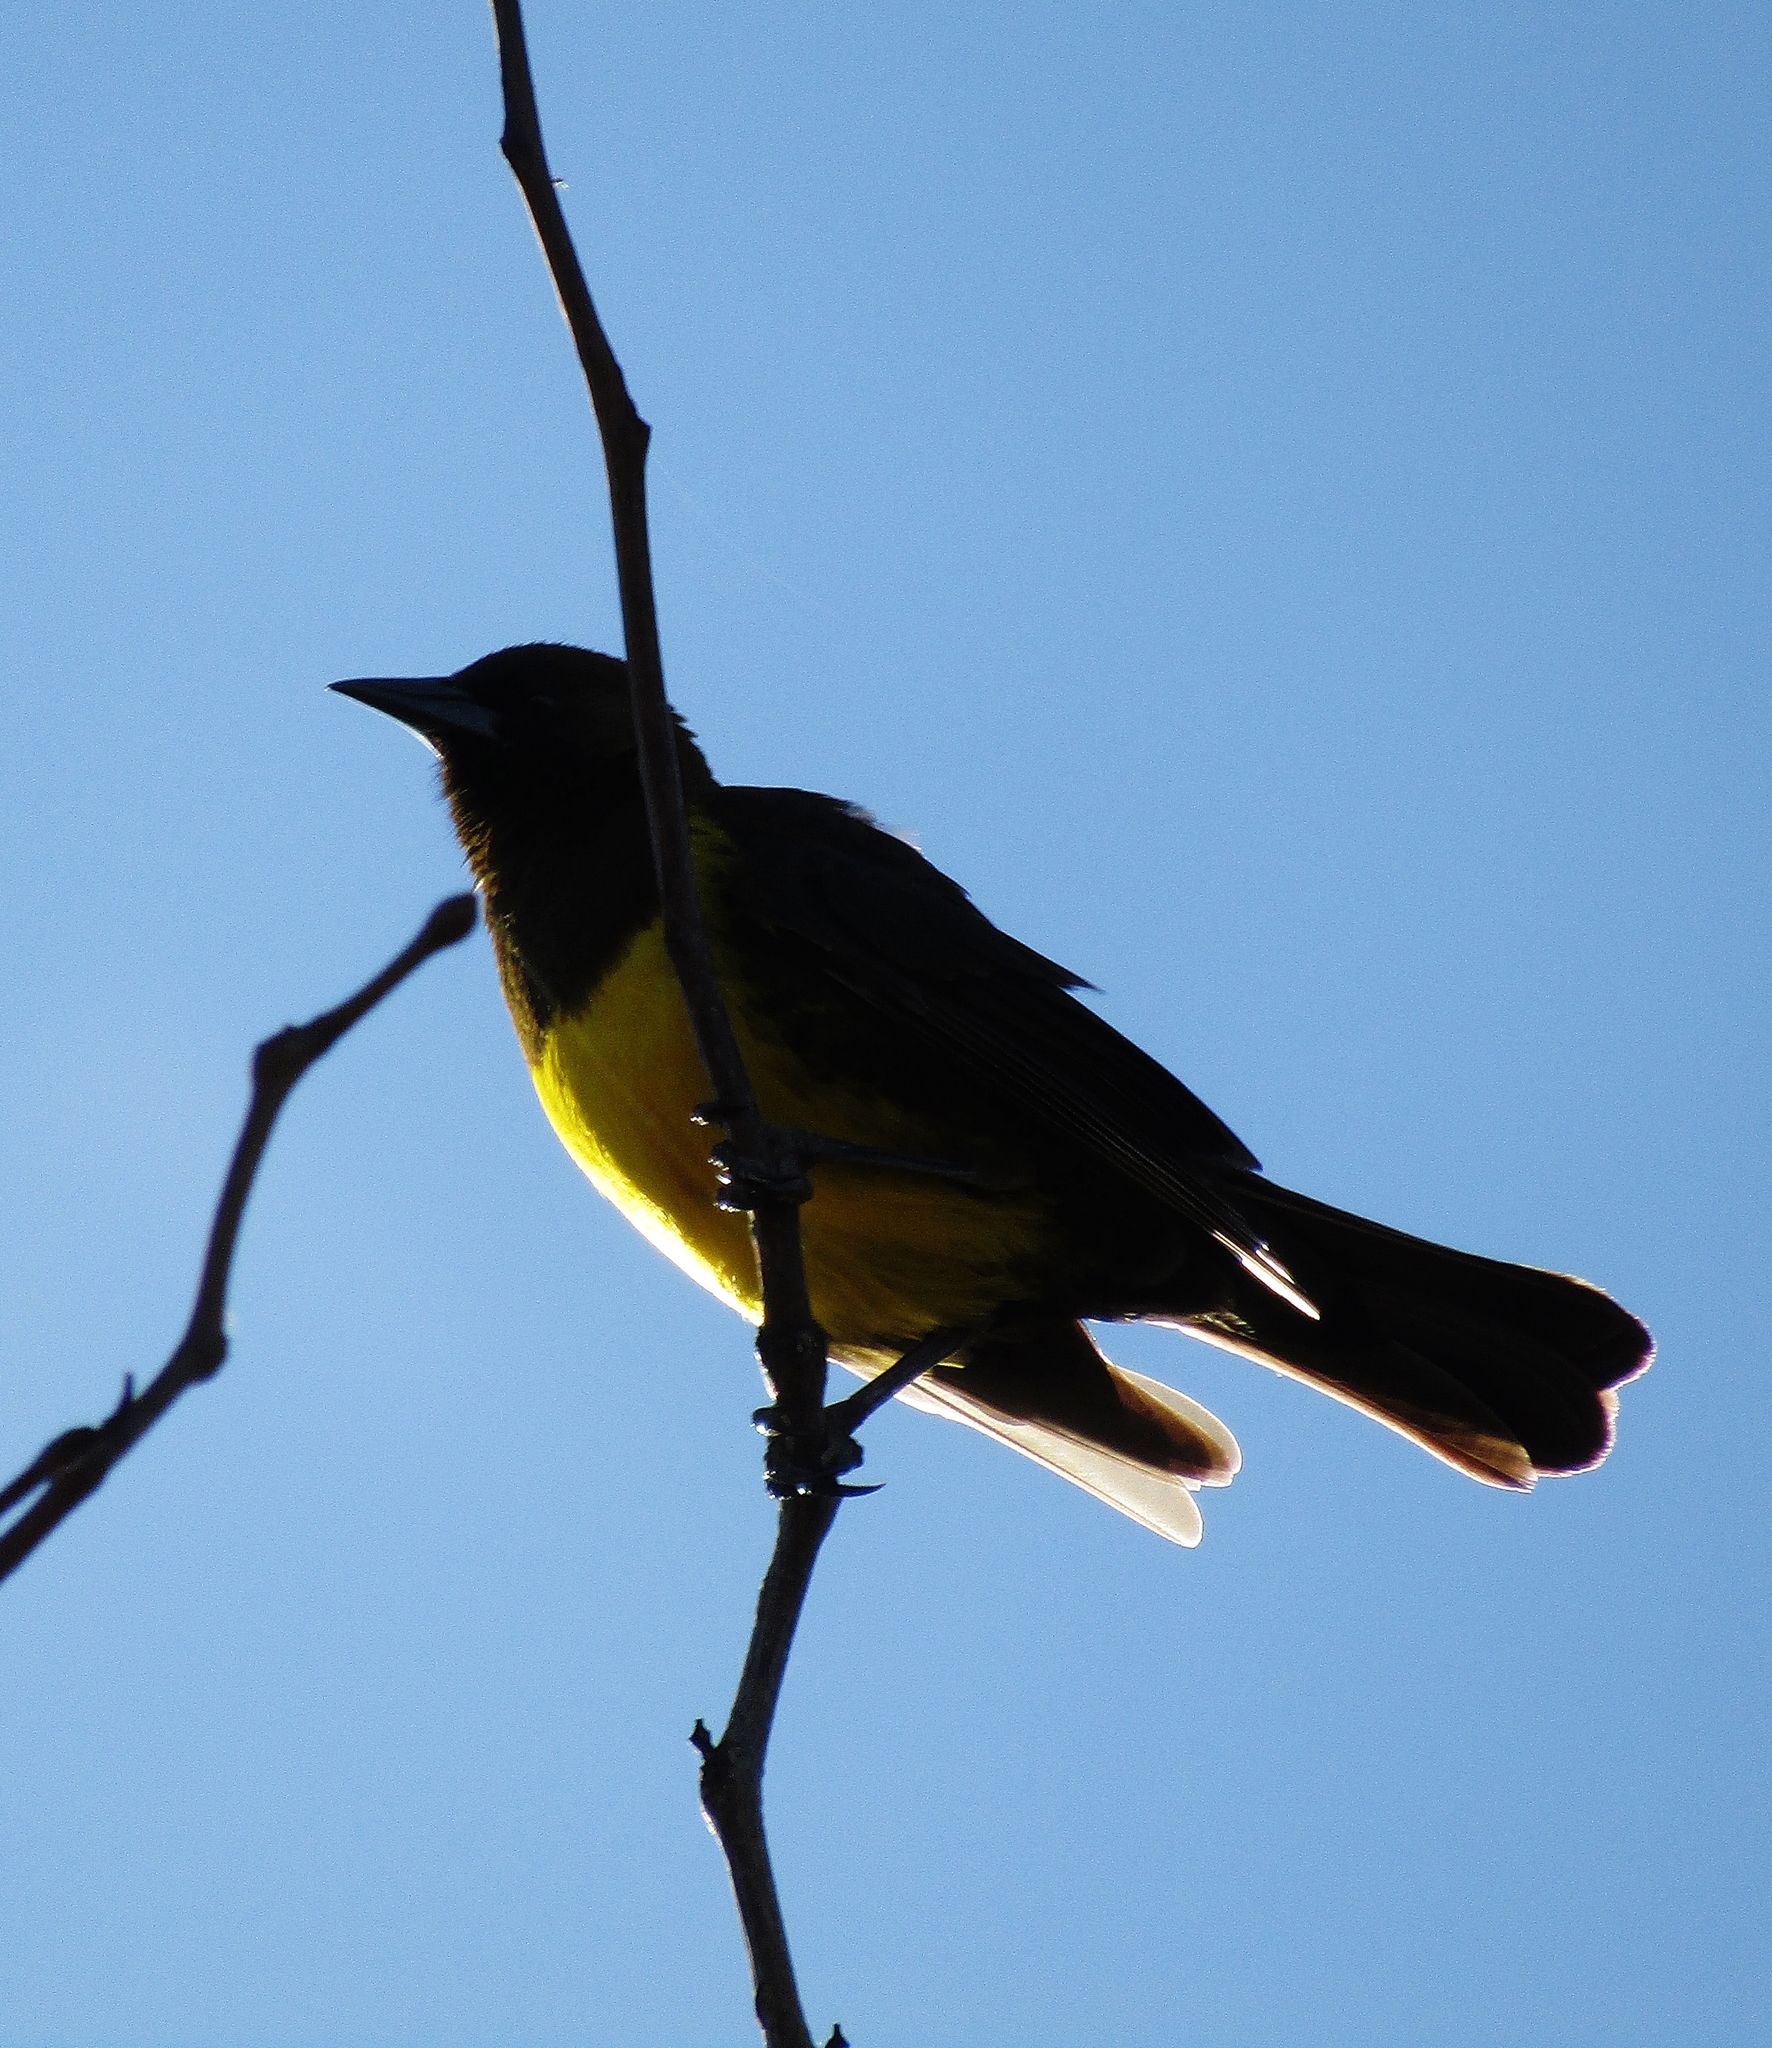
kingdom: Animalia
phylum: Chordata
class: Aves
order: Passeriformes
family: Icteridae
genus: Pseudoleistes
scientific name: Pseudoleistes virescens
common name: Brown-and-yellow marshbird
